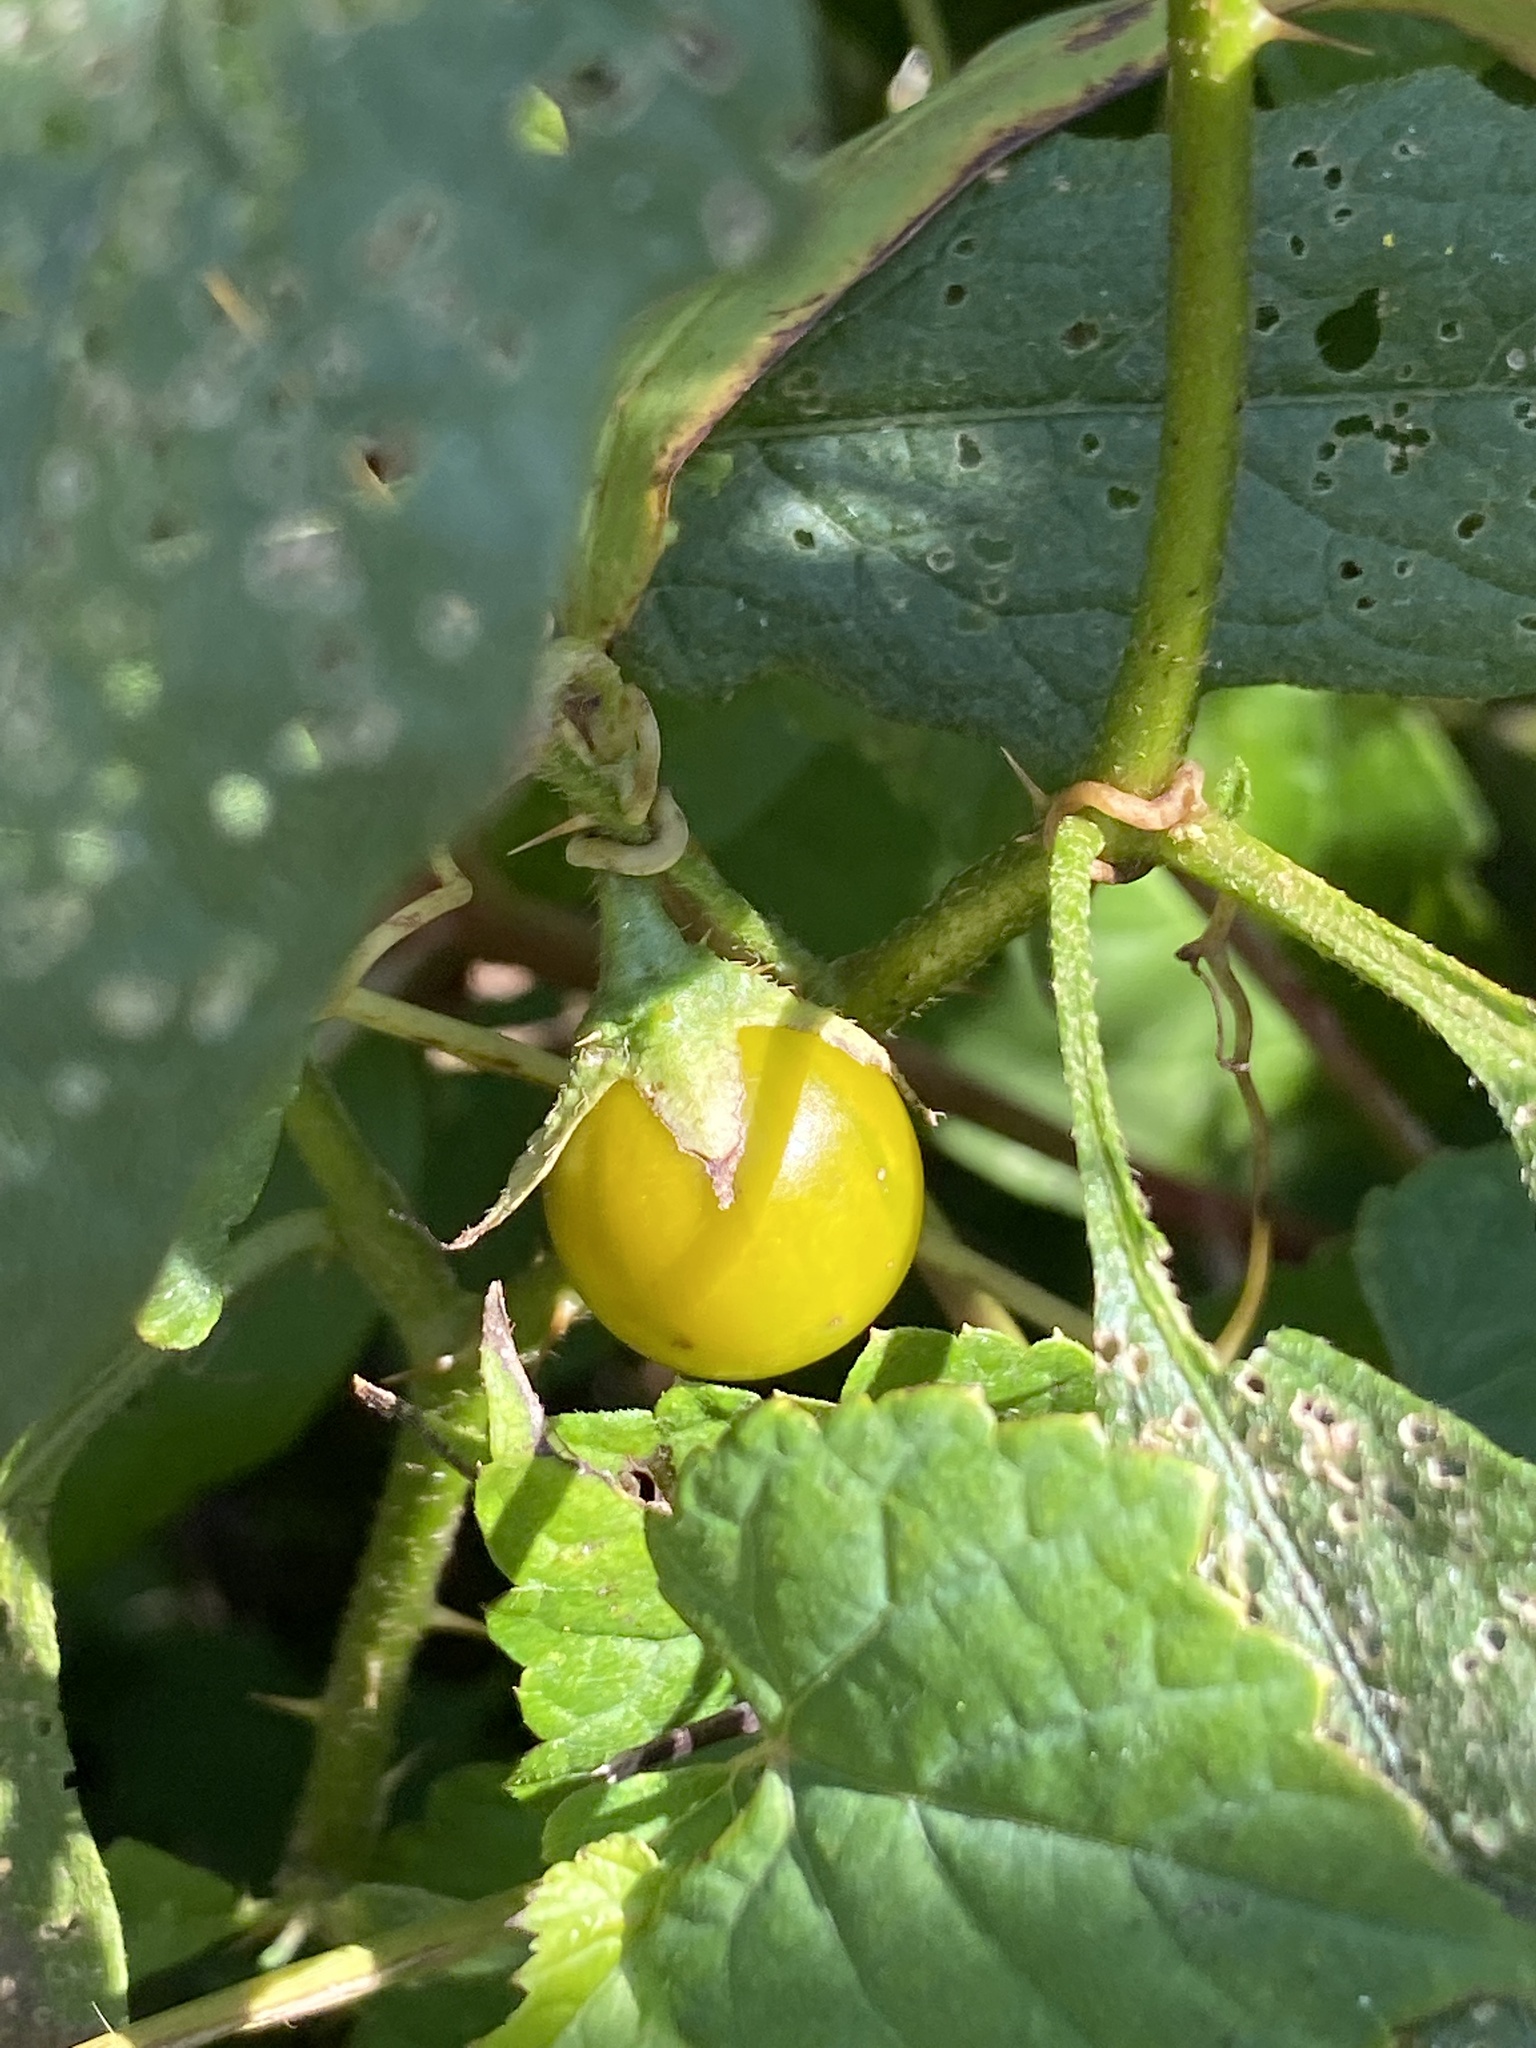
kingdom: Plantae
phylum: Tracheophyta
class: Magnoliopsida
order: Solanales
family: Solanaceae
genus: Solanum
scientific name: Solanum carolinense
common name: Horse-nettle
